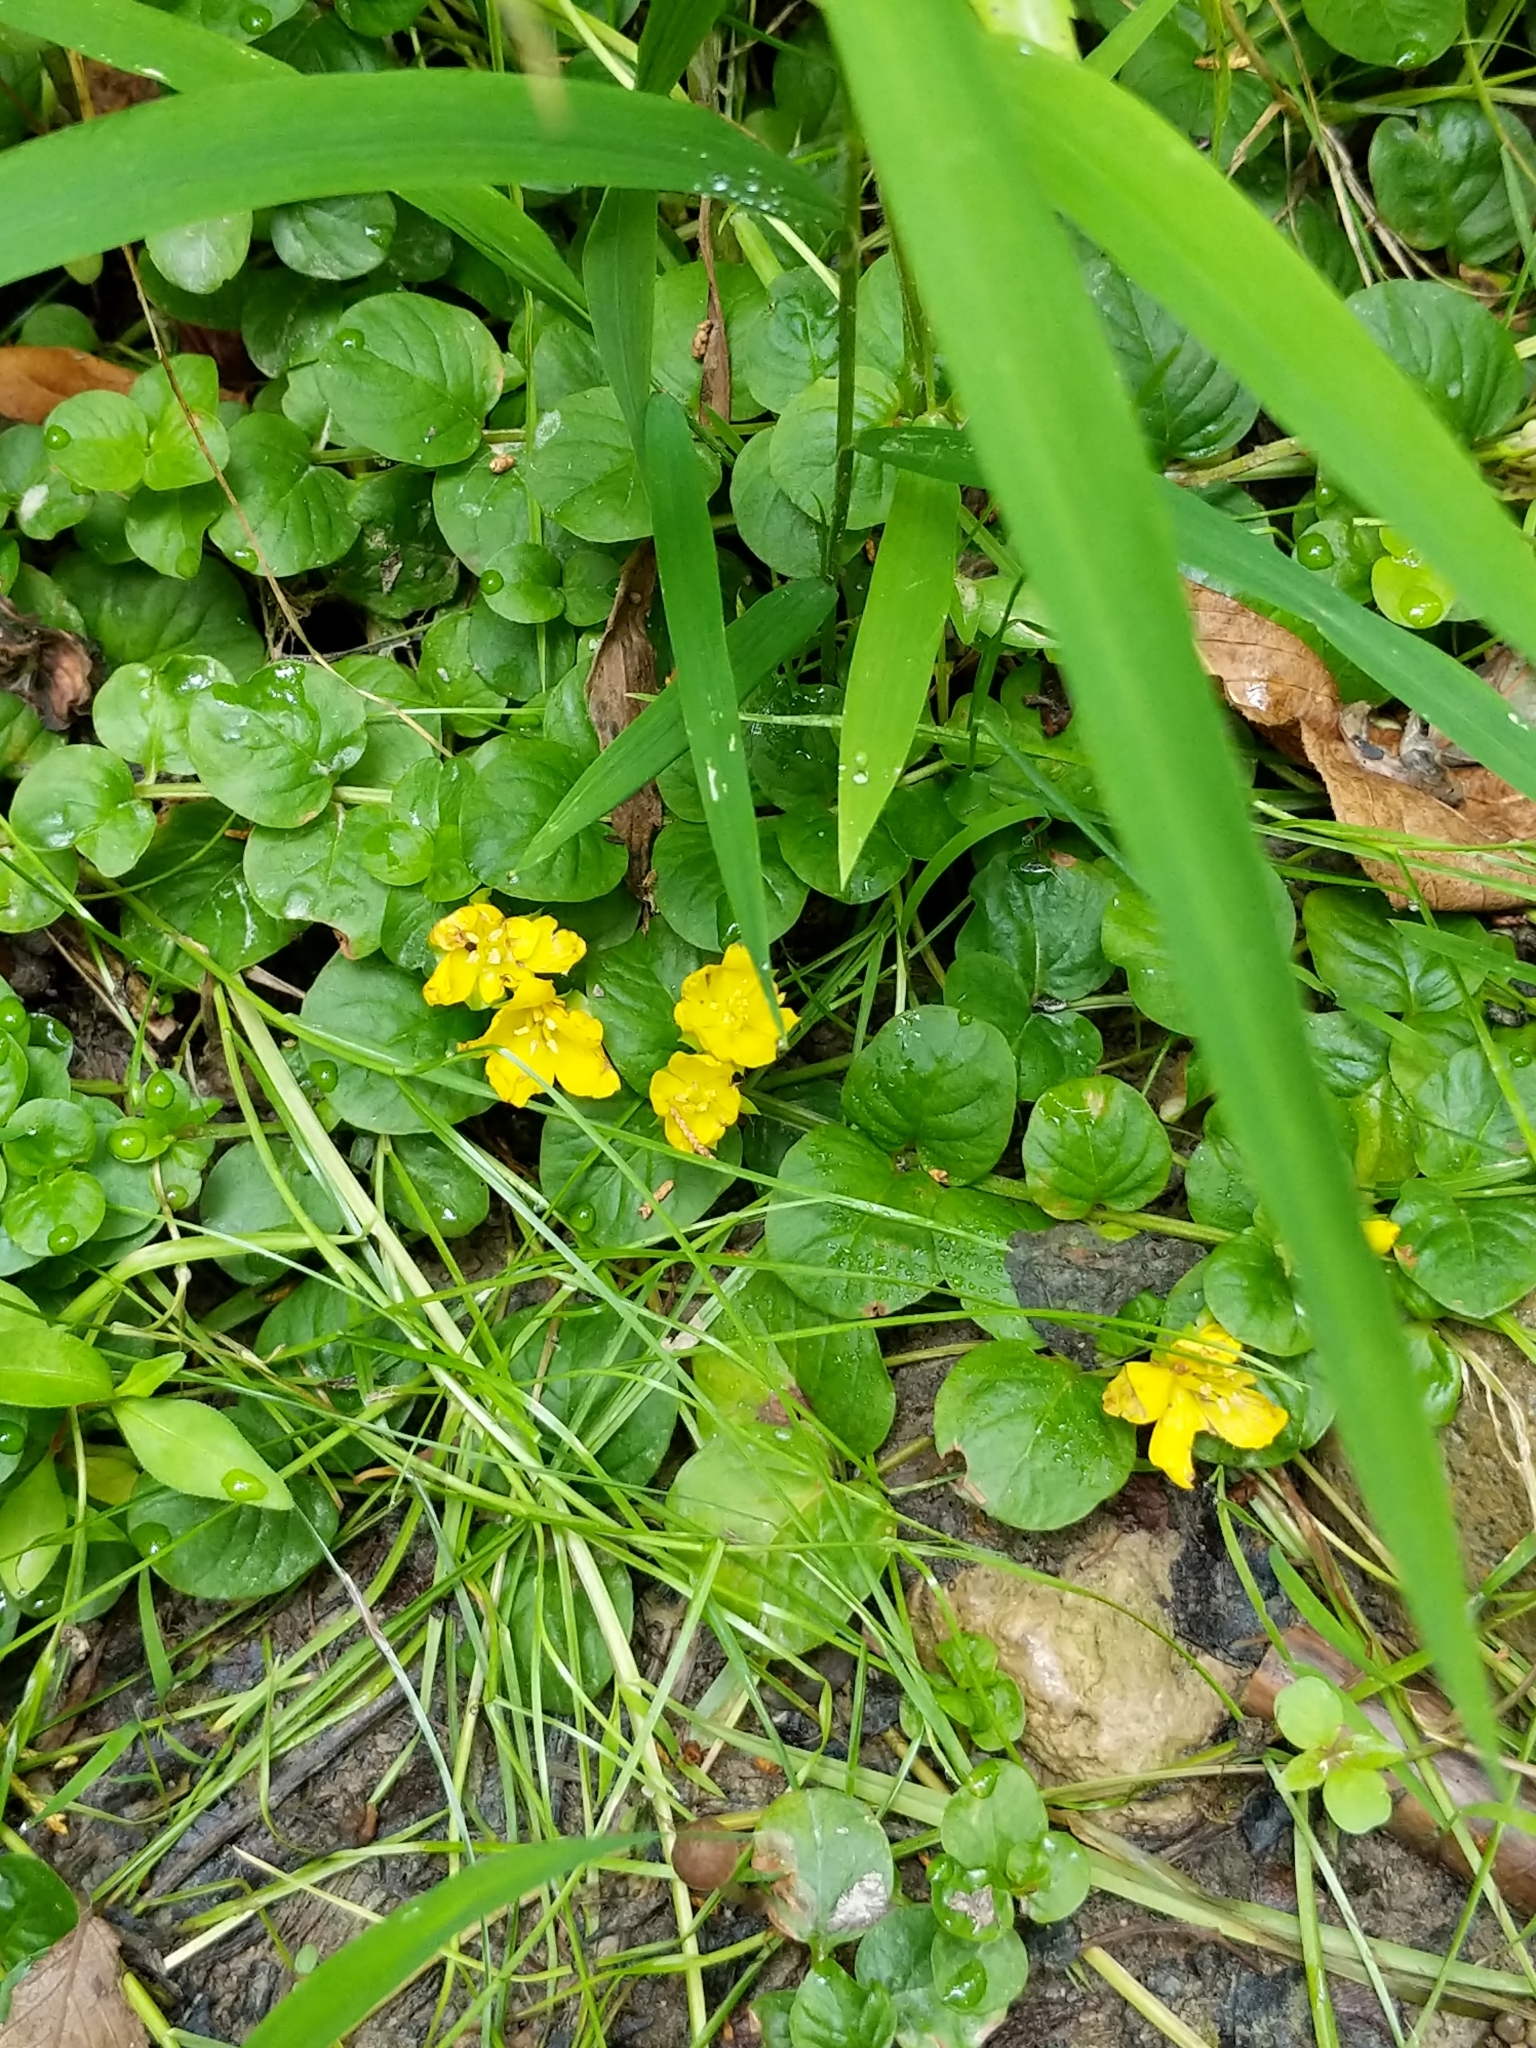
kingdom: Plantae
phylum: Tracheophyta
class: Magnoliopsida
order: Ericales
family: Primulaceae
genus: Lysimachia
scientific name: Lysimachia nummularia
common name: Moneywort
